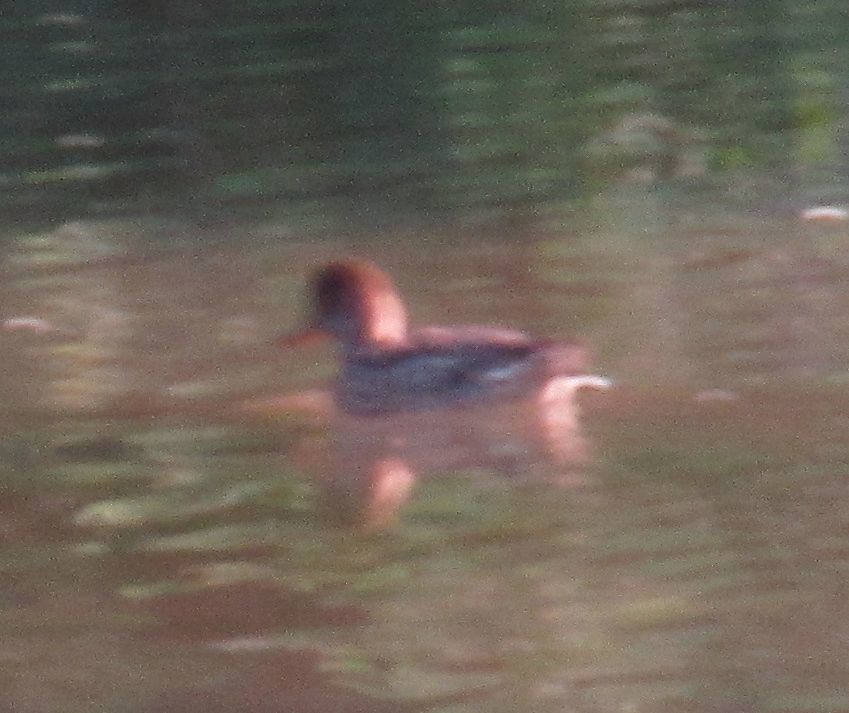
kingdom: Animalia
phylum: Chordata
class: Aves
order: Anseriformes
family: Anatidae
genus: Netta
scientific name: Netta rufina
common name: Red-crested pochard
